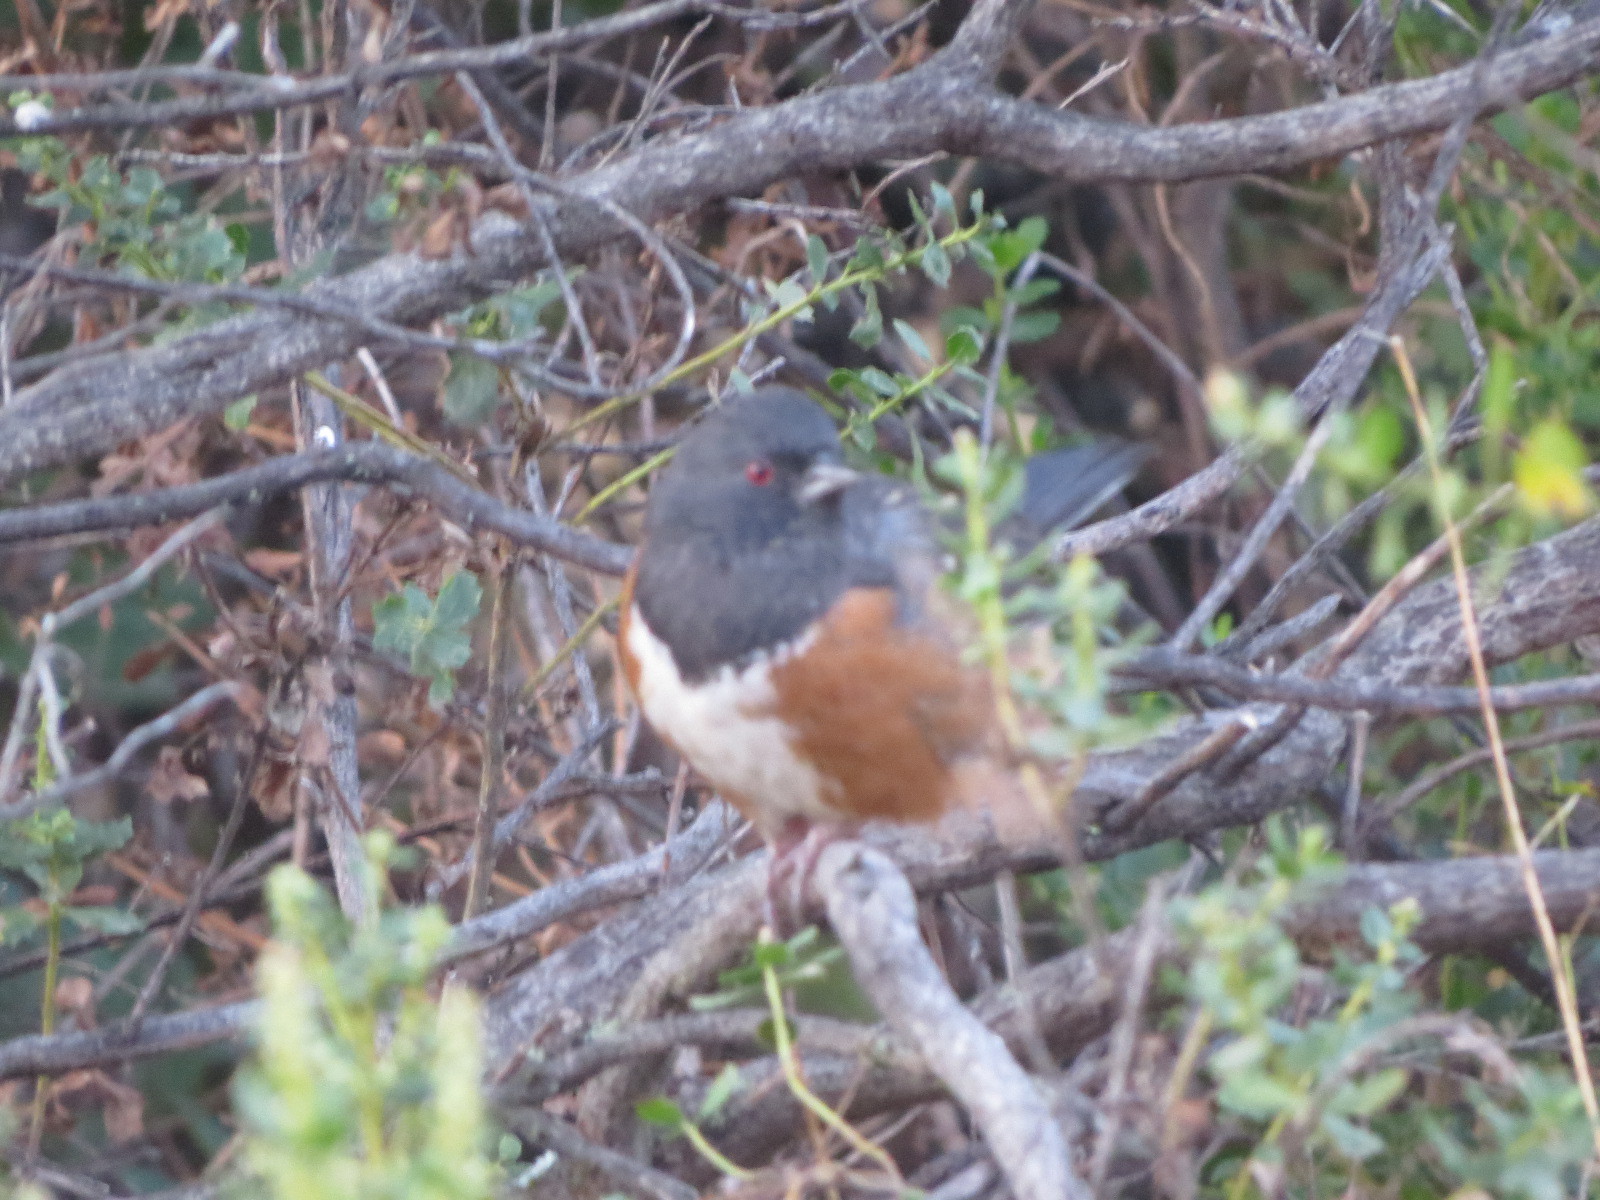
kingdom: Animalia
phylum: Chordata
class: Aves
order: Passeriformes
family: Passerellidae
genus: Pipilo
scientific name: Pipilo maculatus
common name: Spotted towhee
